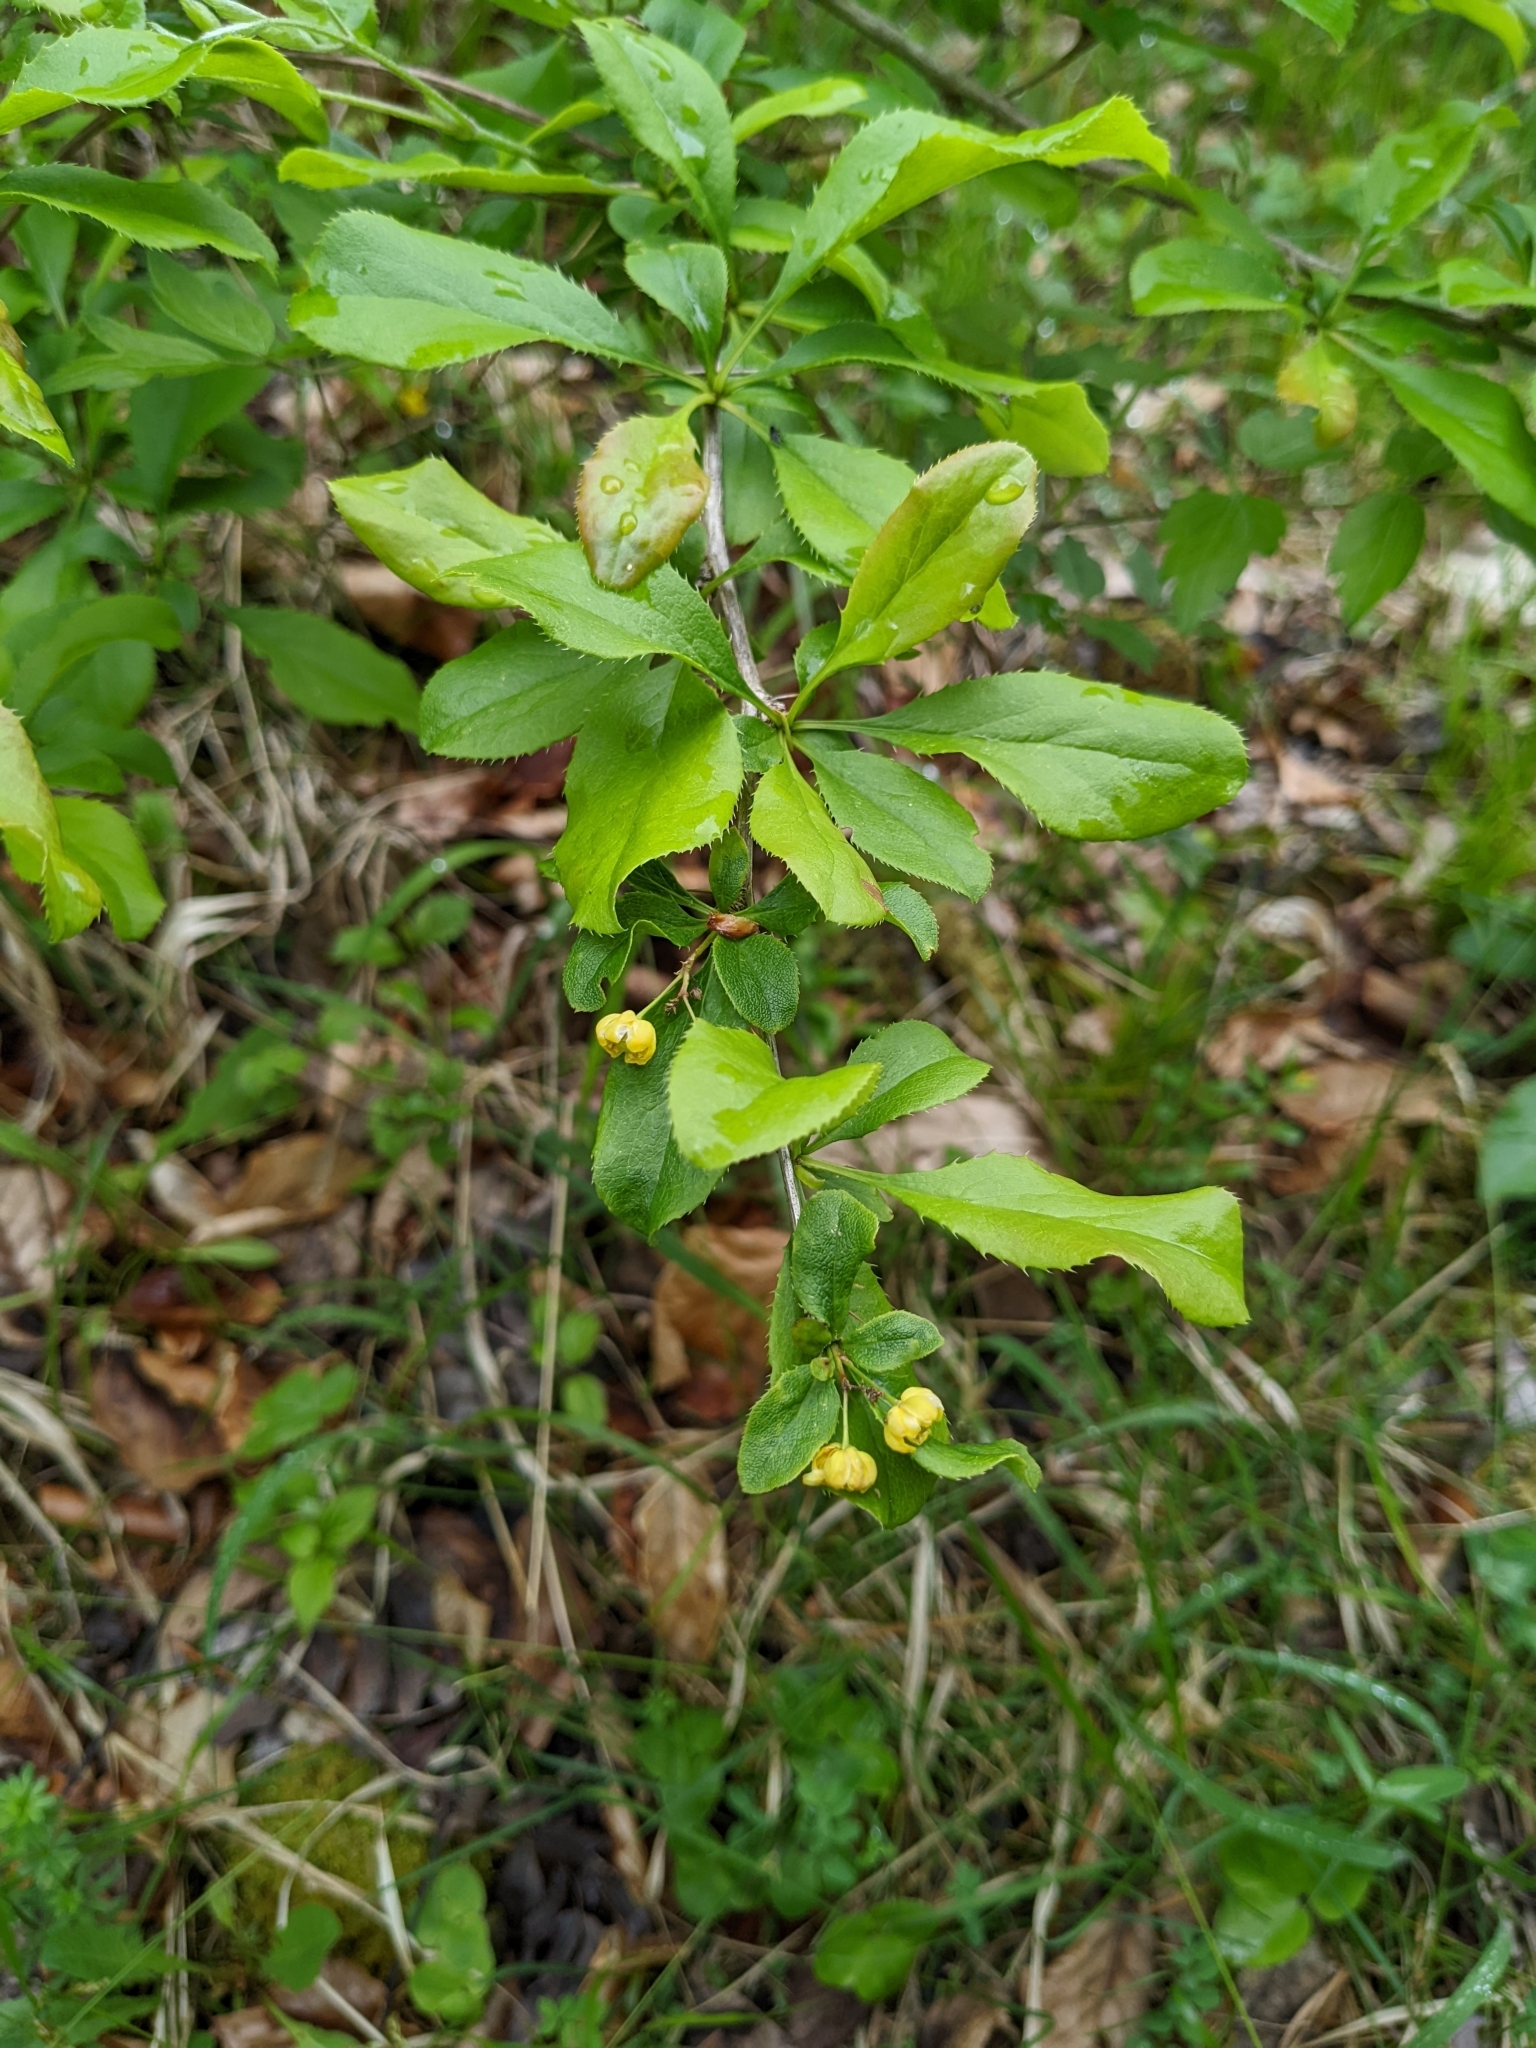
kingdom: Plantae
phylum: Tracheophyta
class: Magnoliopsida
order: Ranunculales
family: Berberidaceae
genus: Berberis
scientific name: Berberis vulgaris
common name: Barberry
